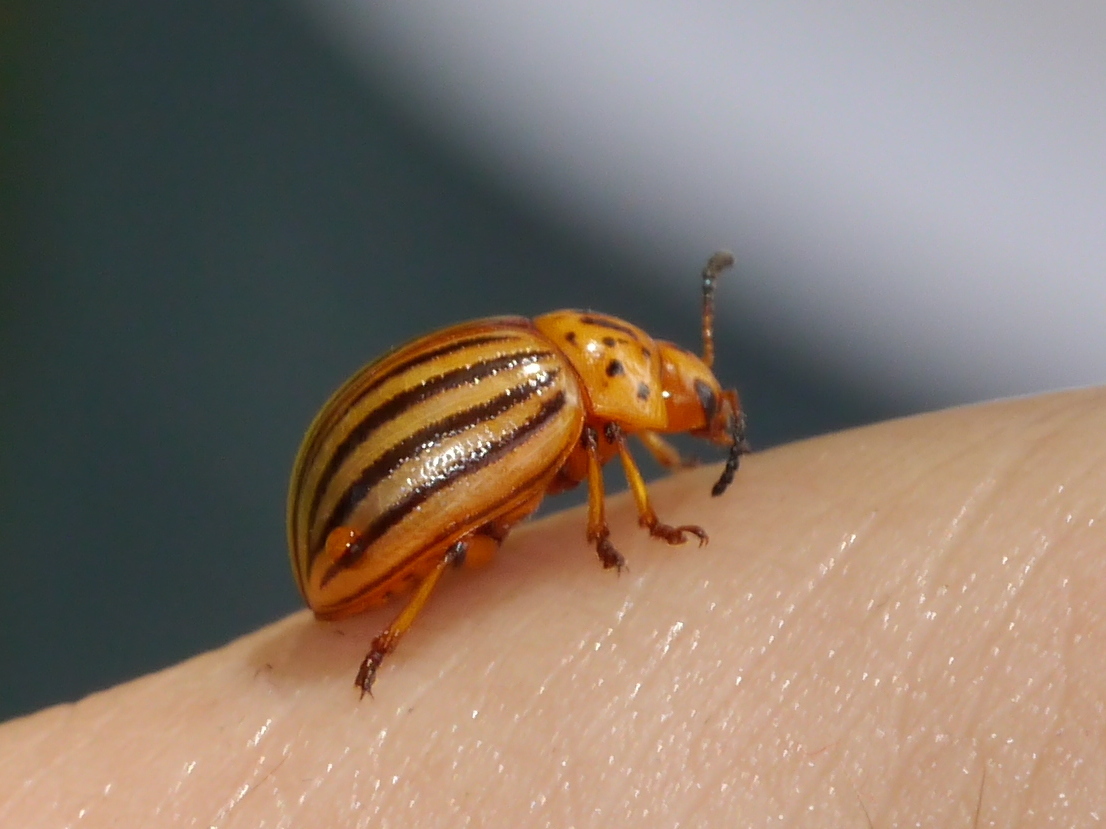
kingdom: Animalia
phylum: Arthropoda
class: Insecta
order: Coleoptera
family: Chrysomelidae
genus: Leptinotarsa
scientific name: Leptinotarsa decemlineata
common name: Colorado potato beetle
